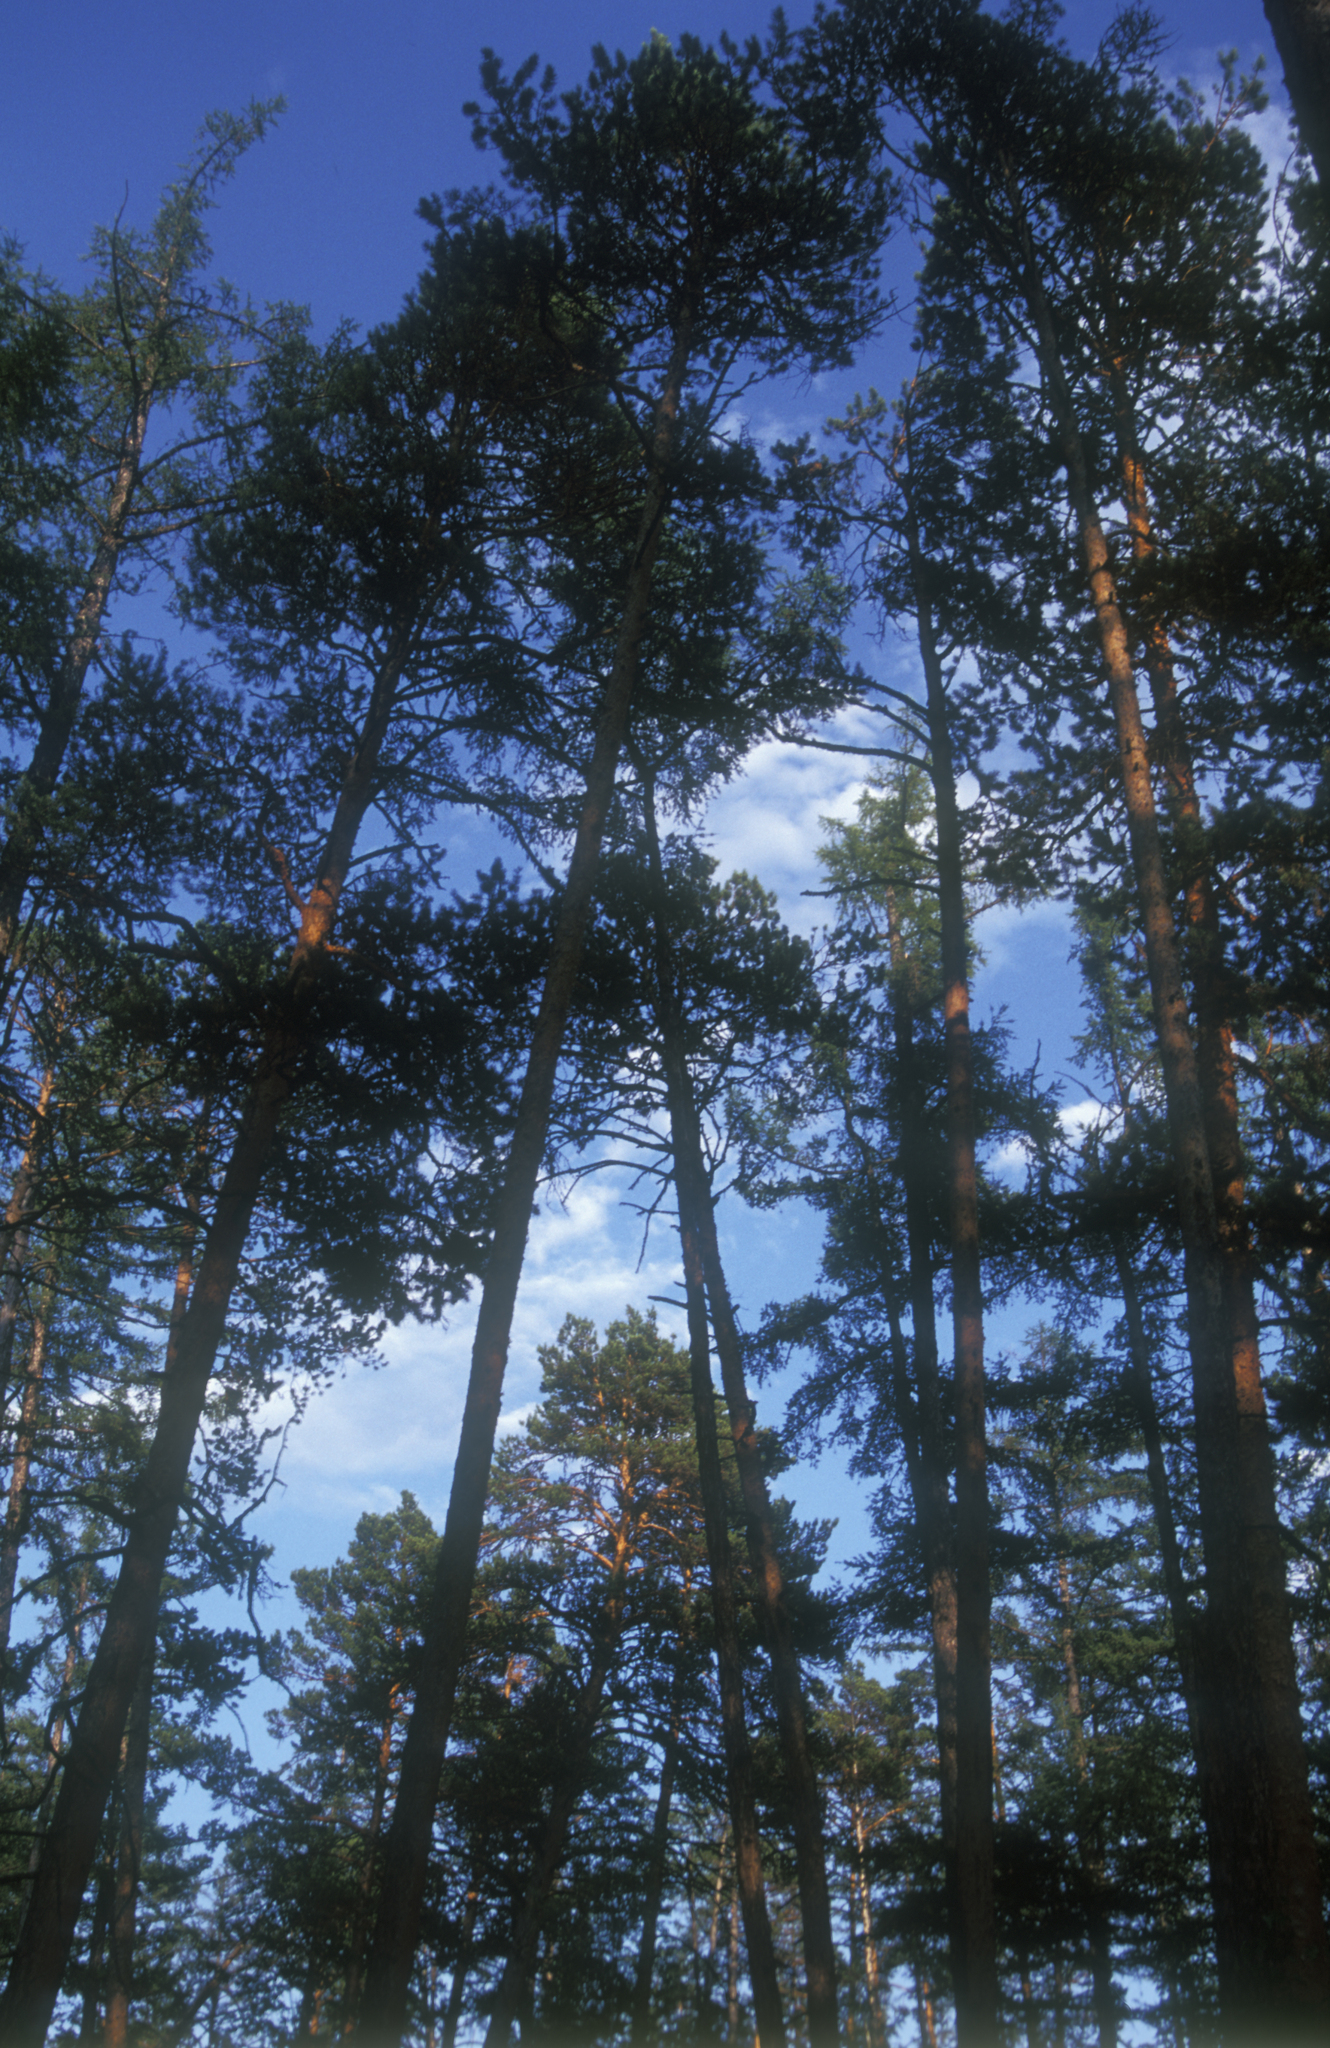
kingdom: Plantae
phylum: Tracheophyta
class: Pinopsida
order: Pinales
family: Pinaceae
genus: Larix
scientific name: Larix sibirica
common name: Siberian larch
